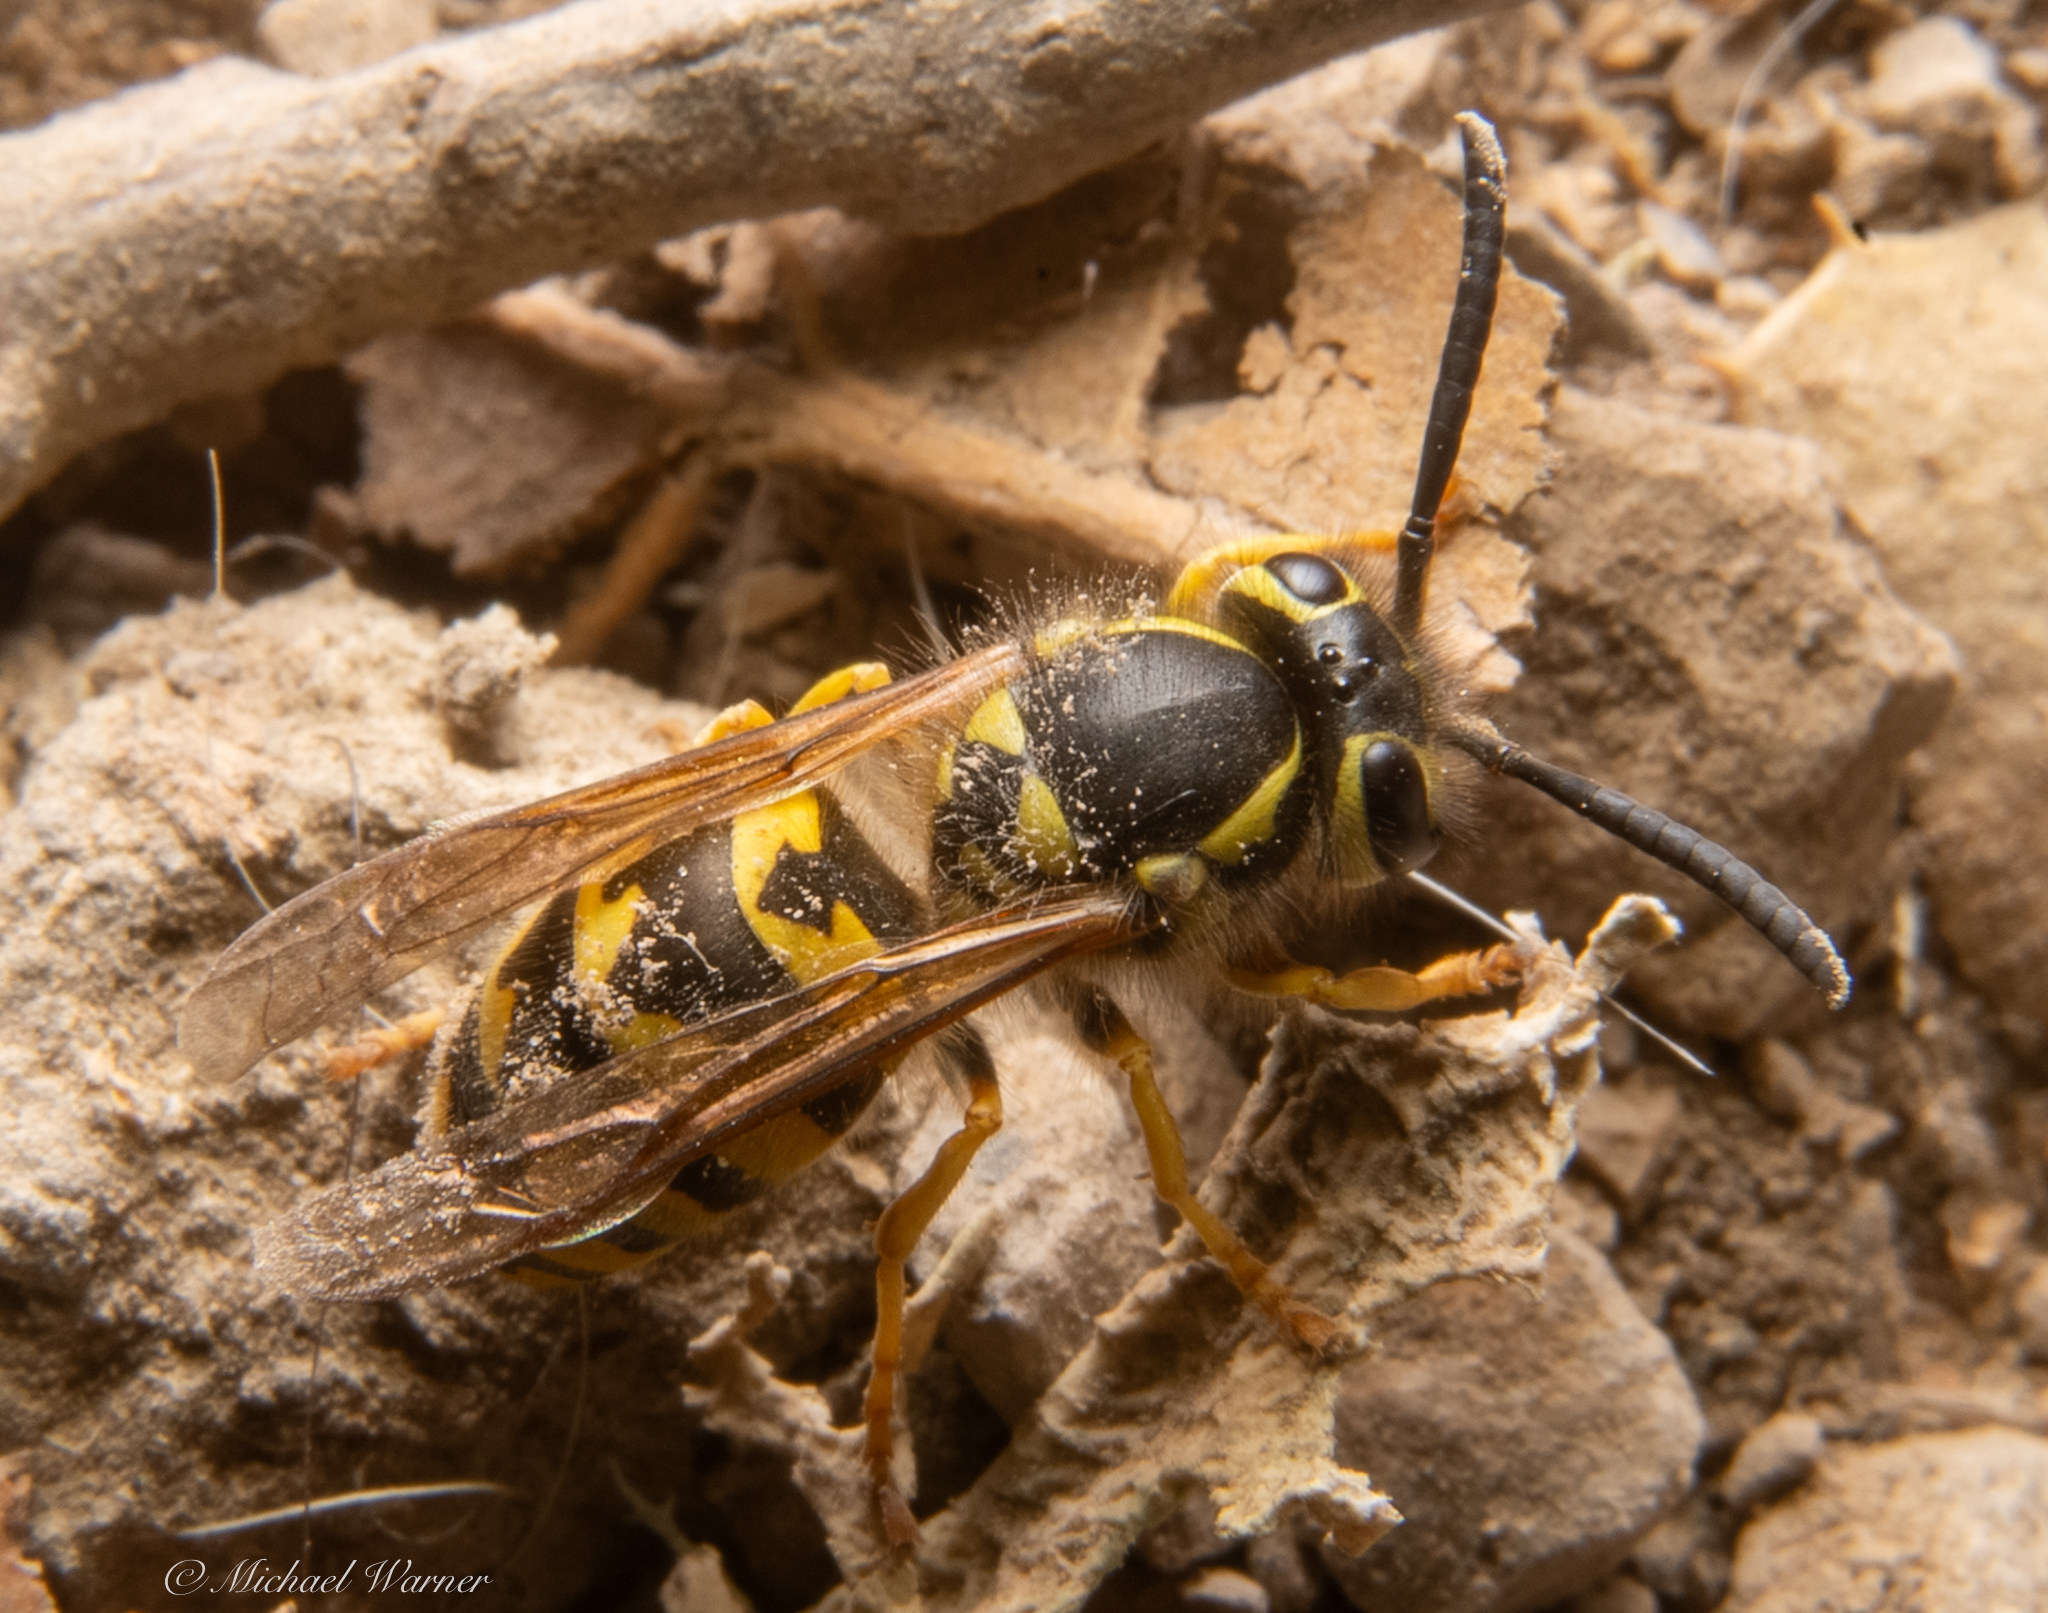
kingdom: Animalia
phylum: Arthropoda
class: Insecta
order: Hymenoptera
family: Vespidae
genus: Vespula
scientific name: Vespula pensylvanica
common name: Western yellowjacket
